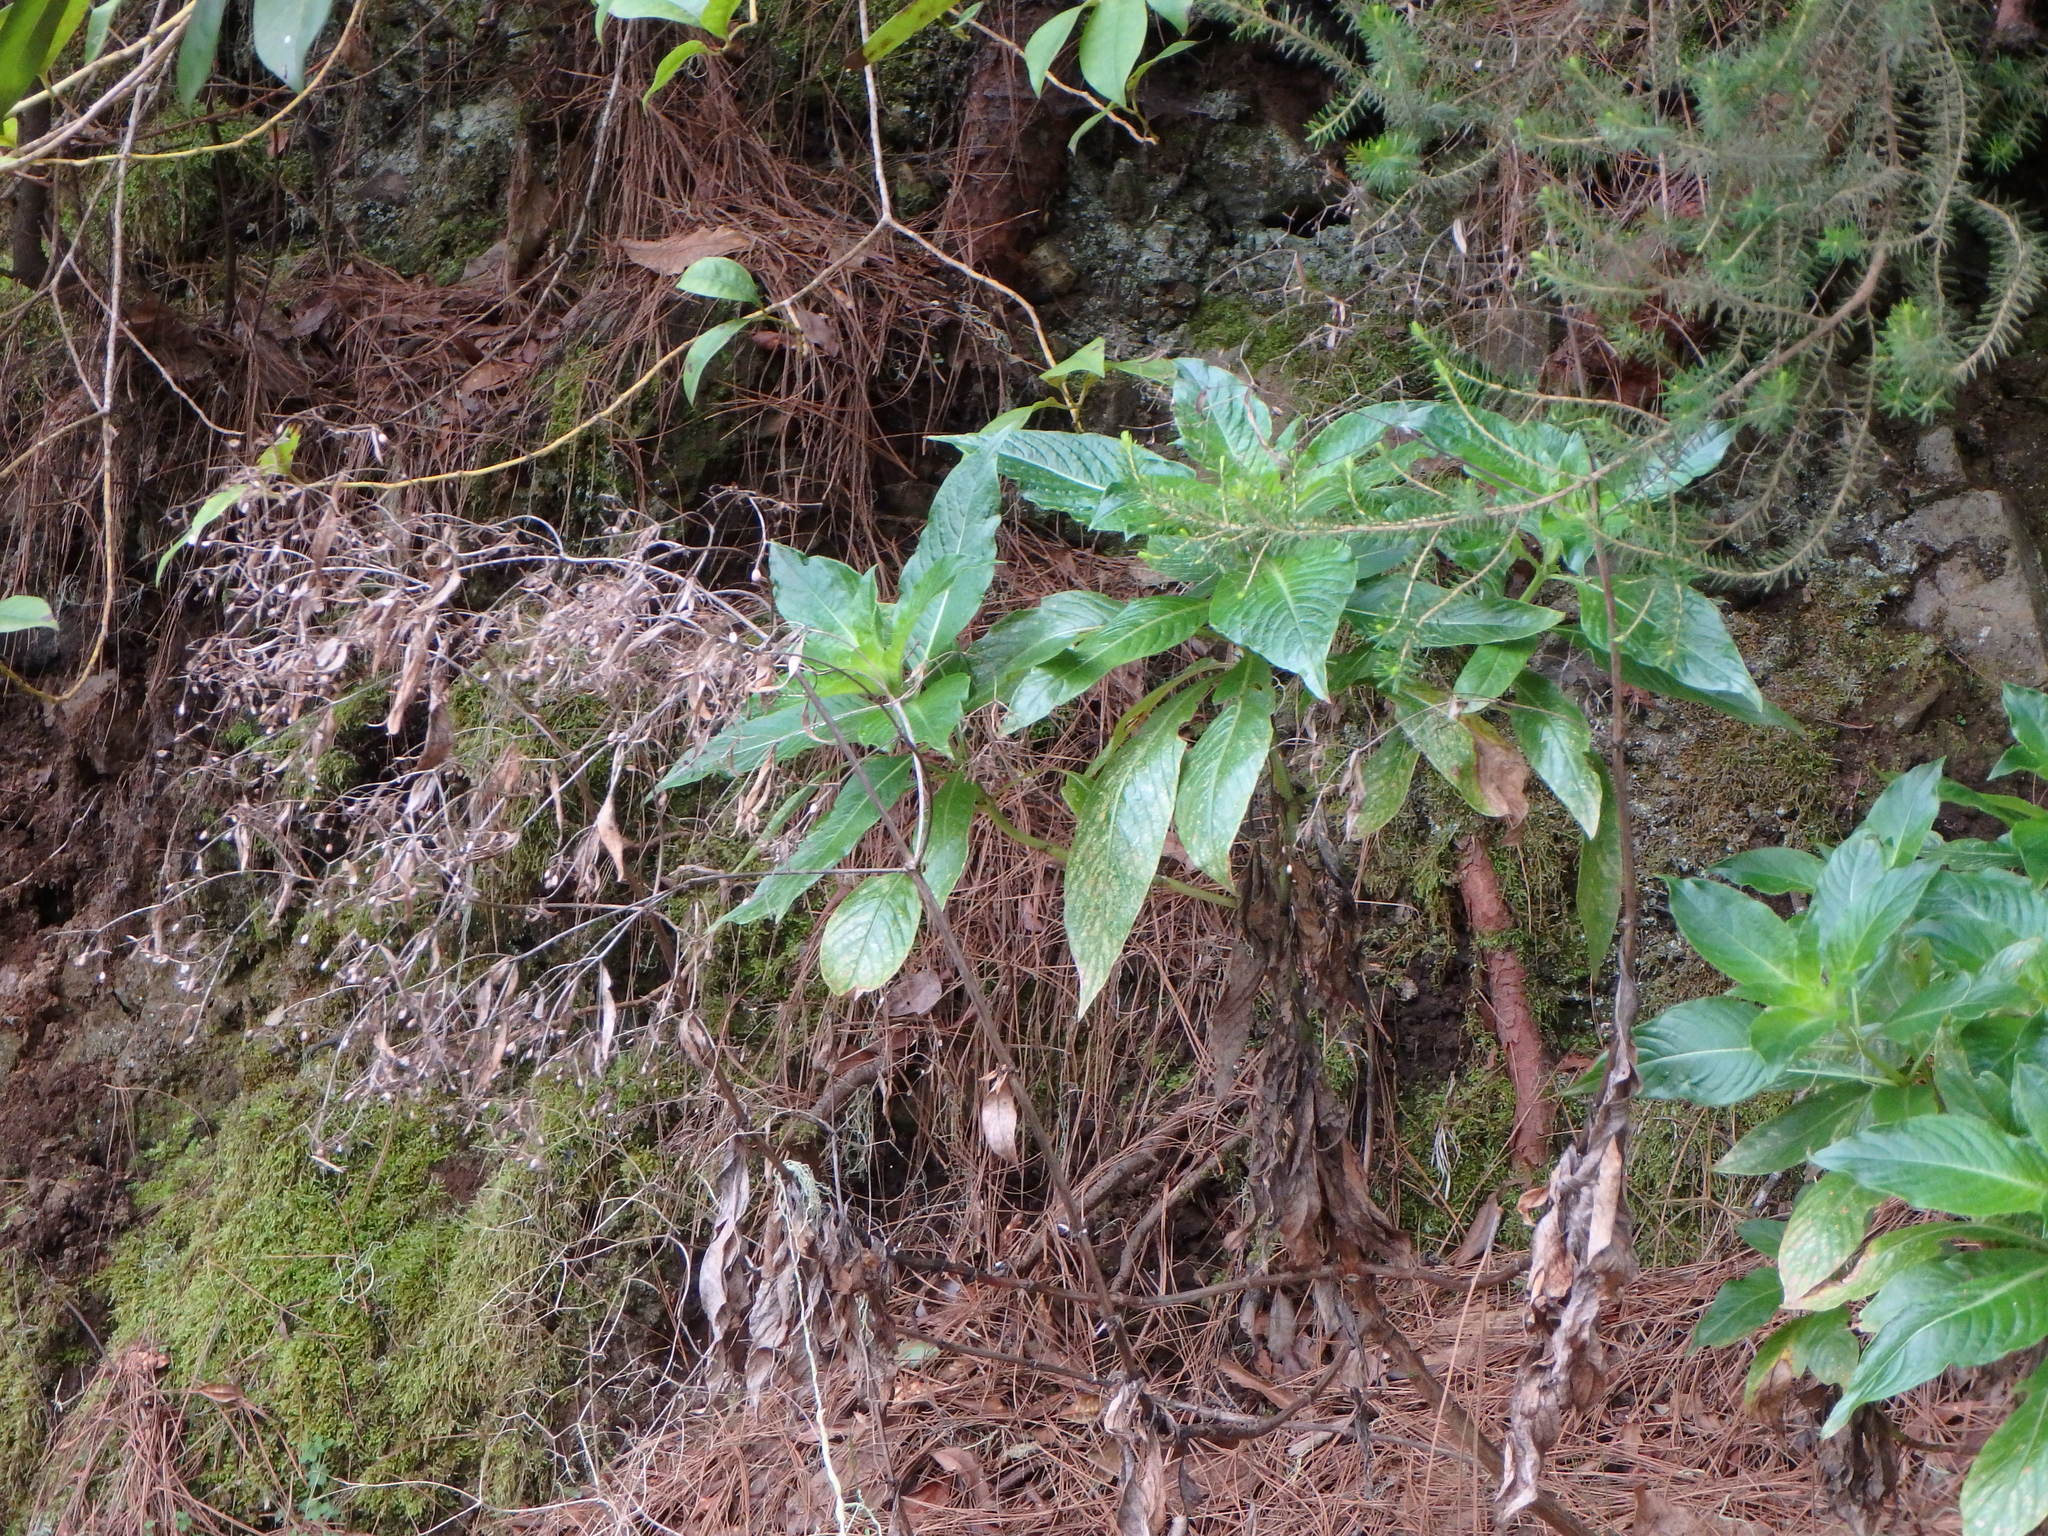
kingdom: Plantae
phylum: Tracheophyta
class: Magnoliopsida
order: Gentianales
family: Rubiaceae
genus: Phyllis
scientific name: Phyllis nobla
